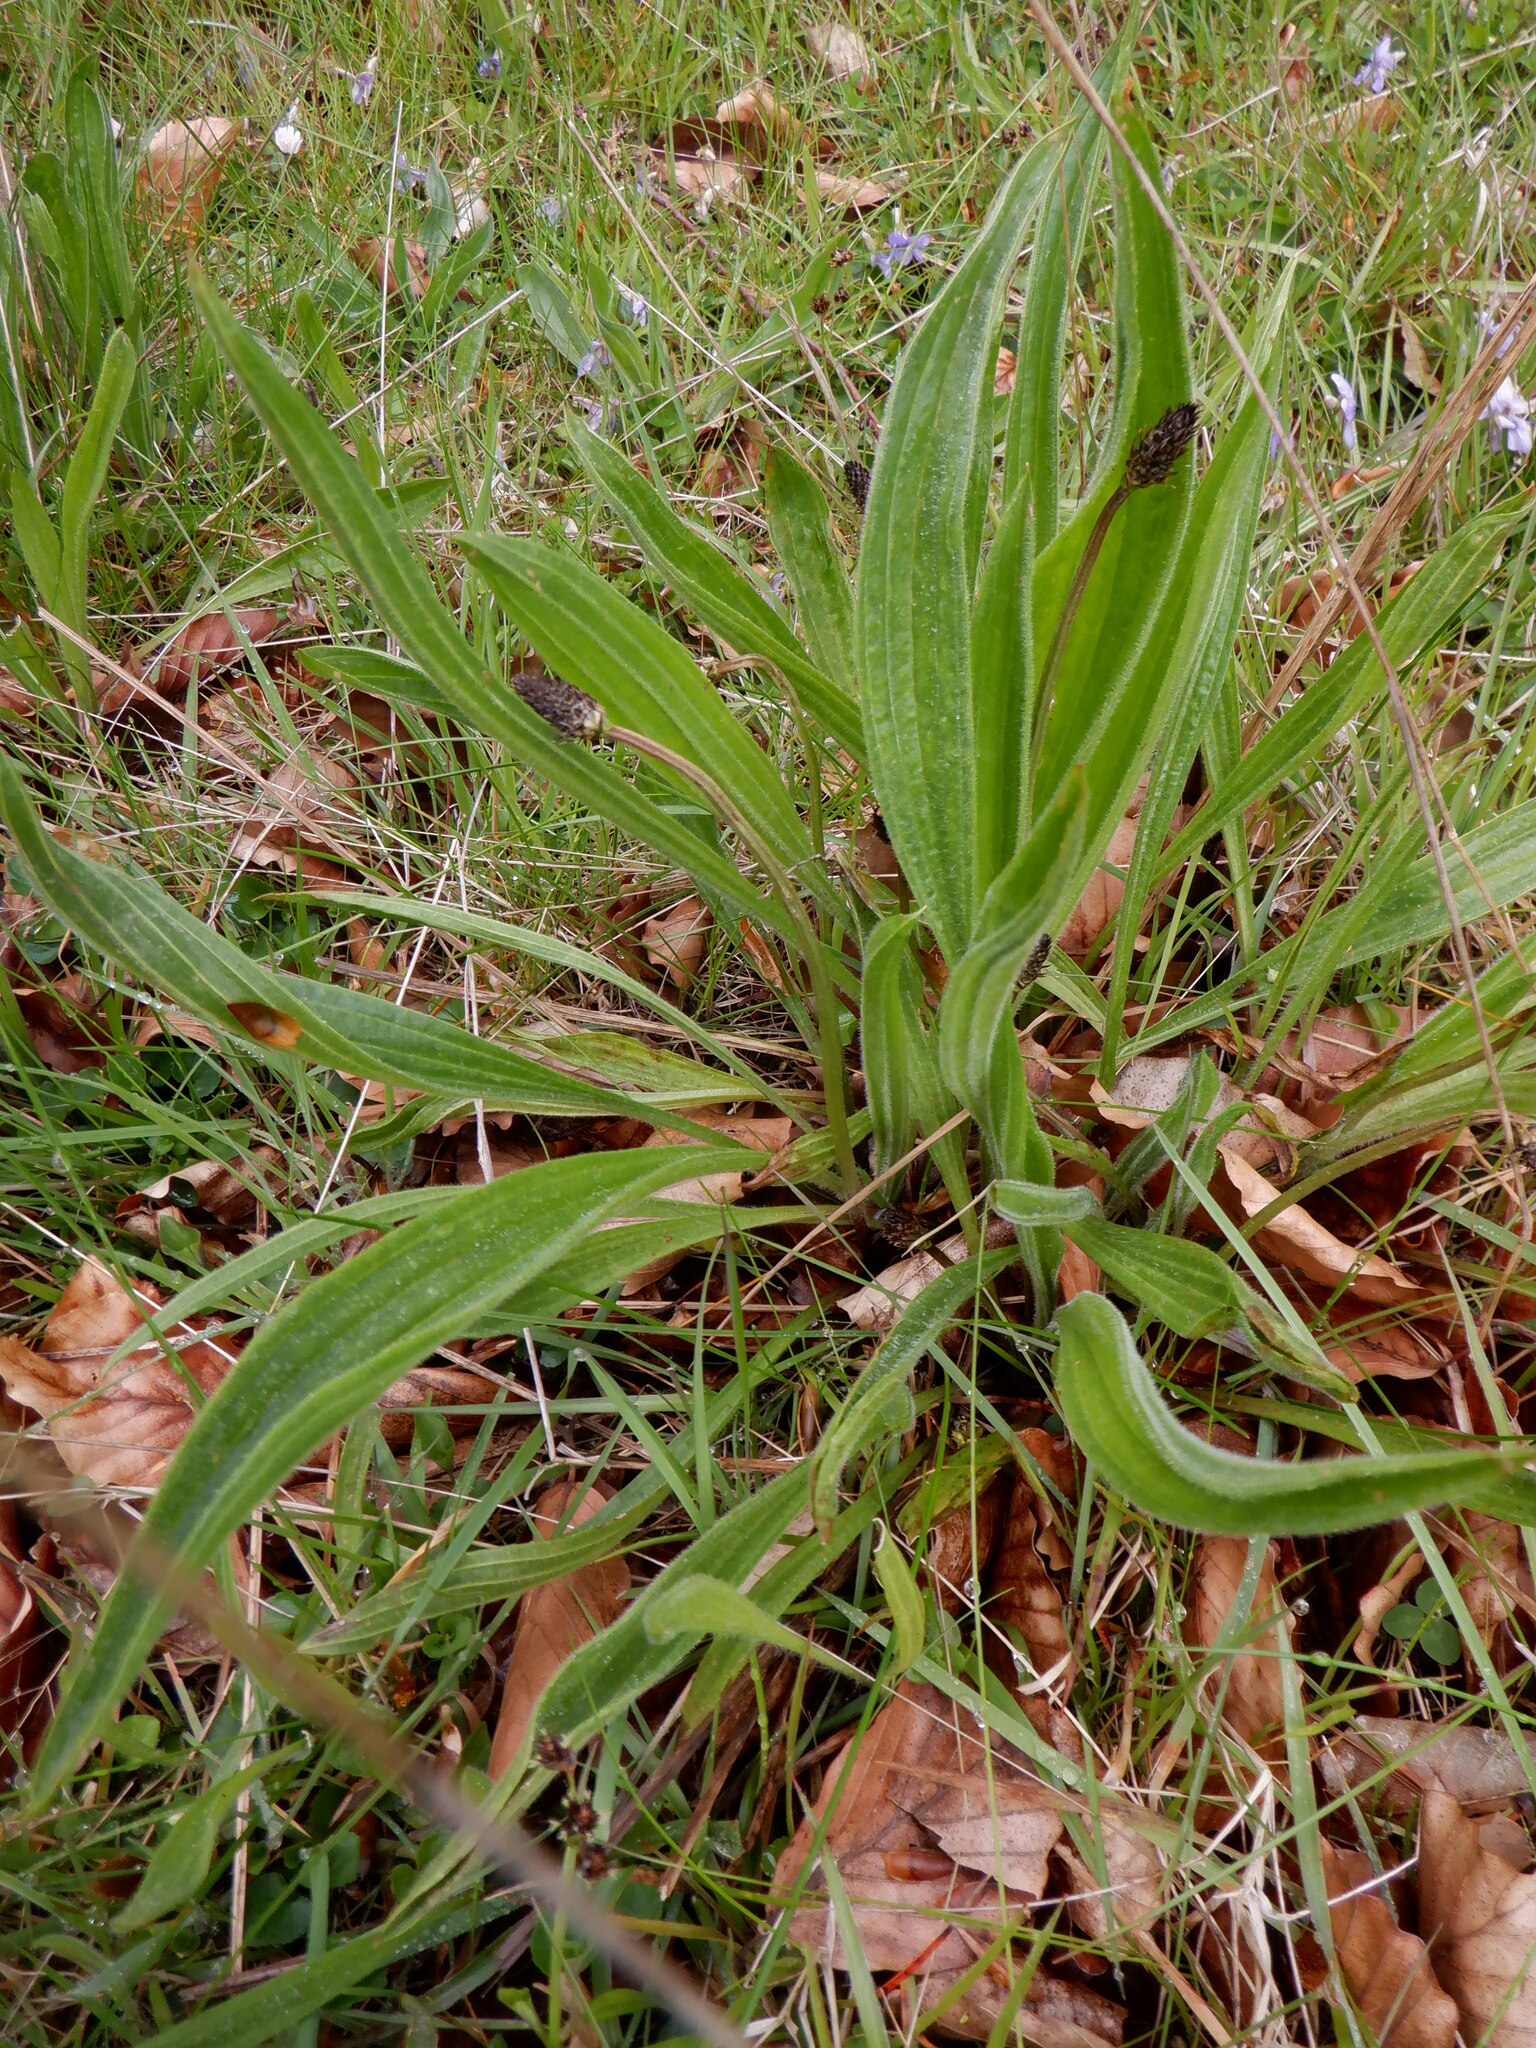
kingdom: Plantae
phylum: Tracheophyta
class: Magnoliopsida
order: Lamiales
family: Plantaginaceae
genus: Plantago
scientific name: Plantago lanceolata
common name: Ribwort plantain
